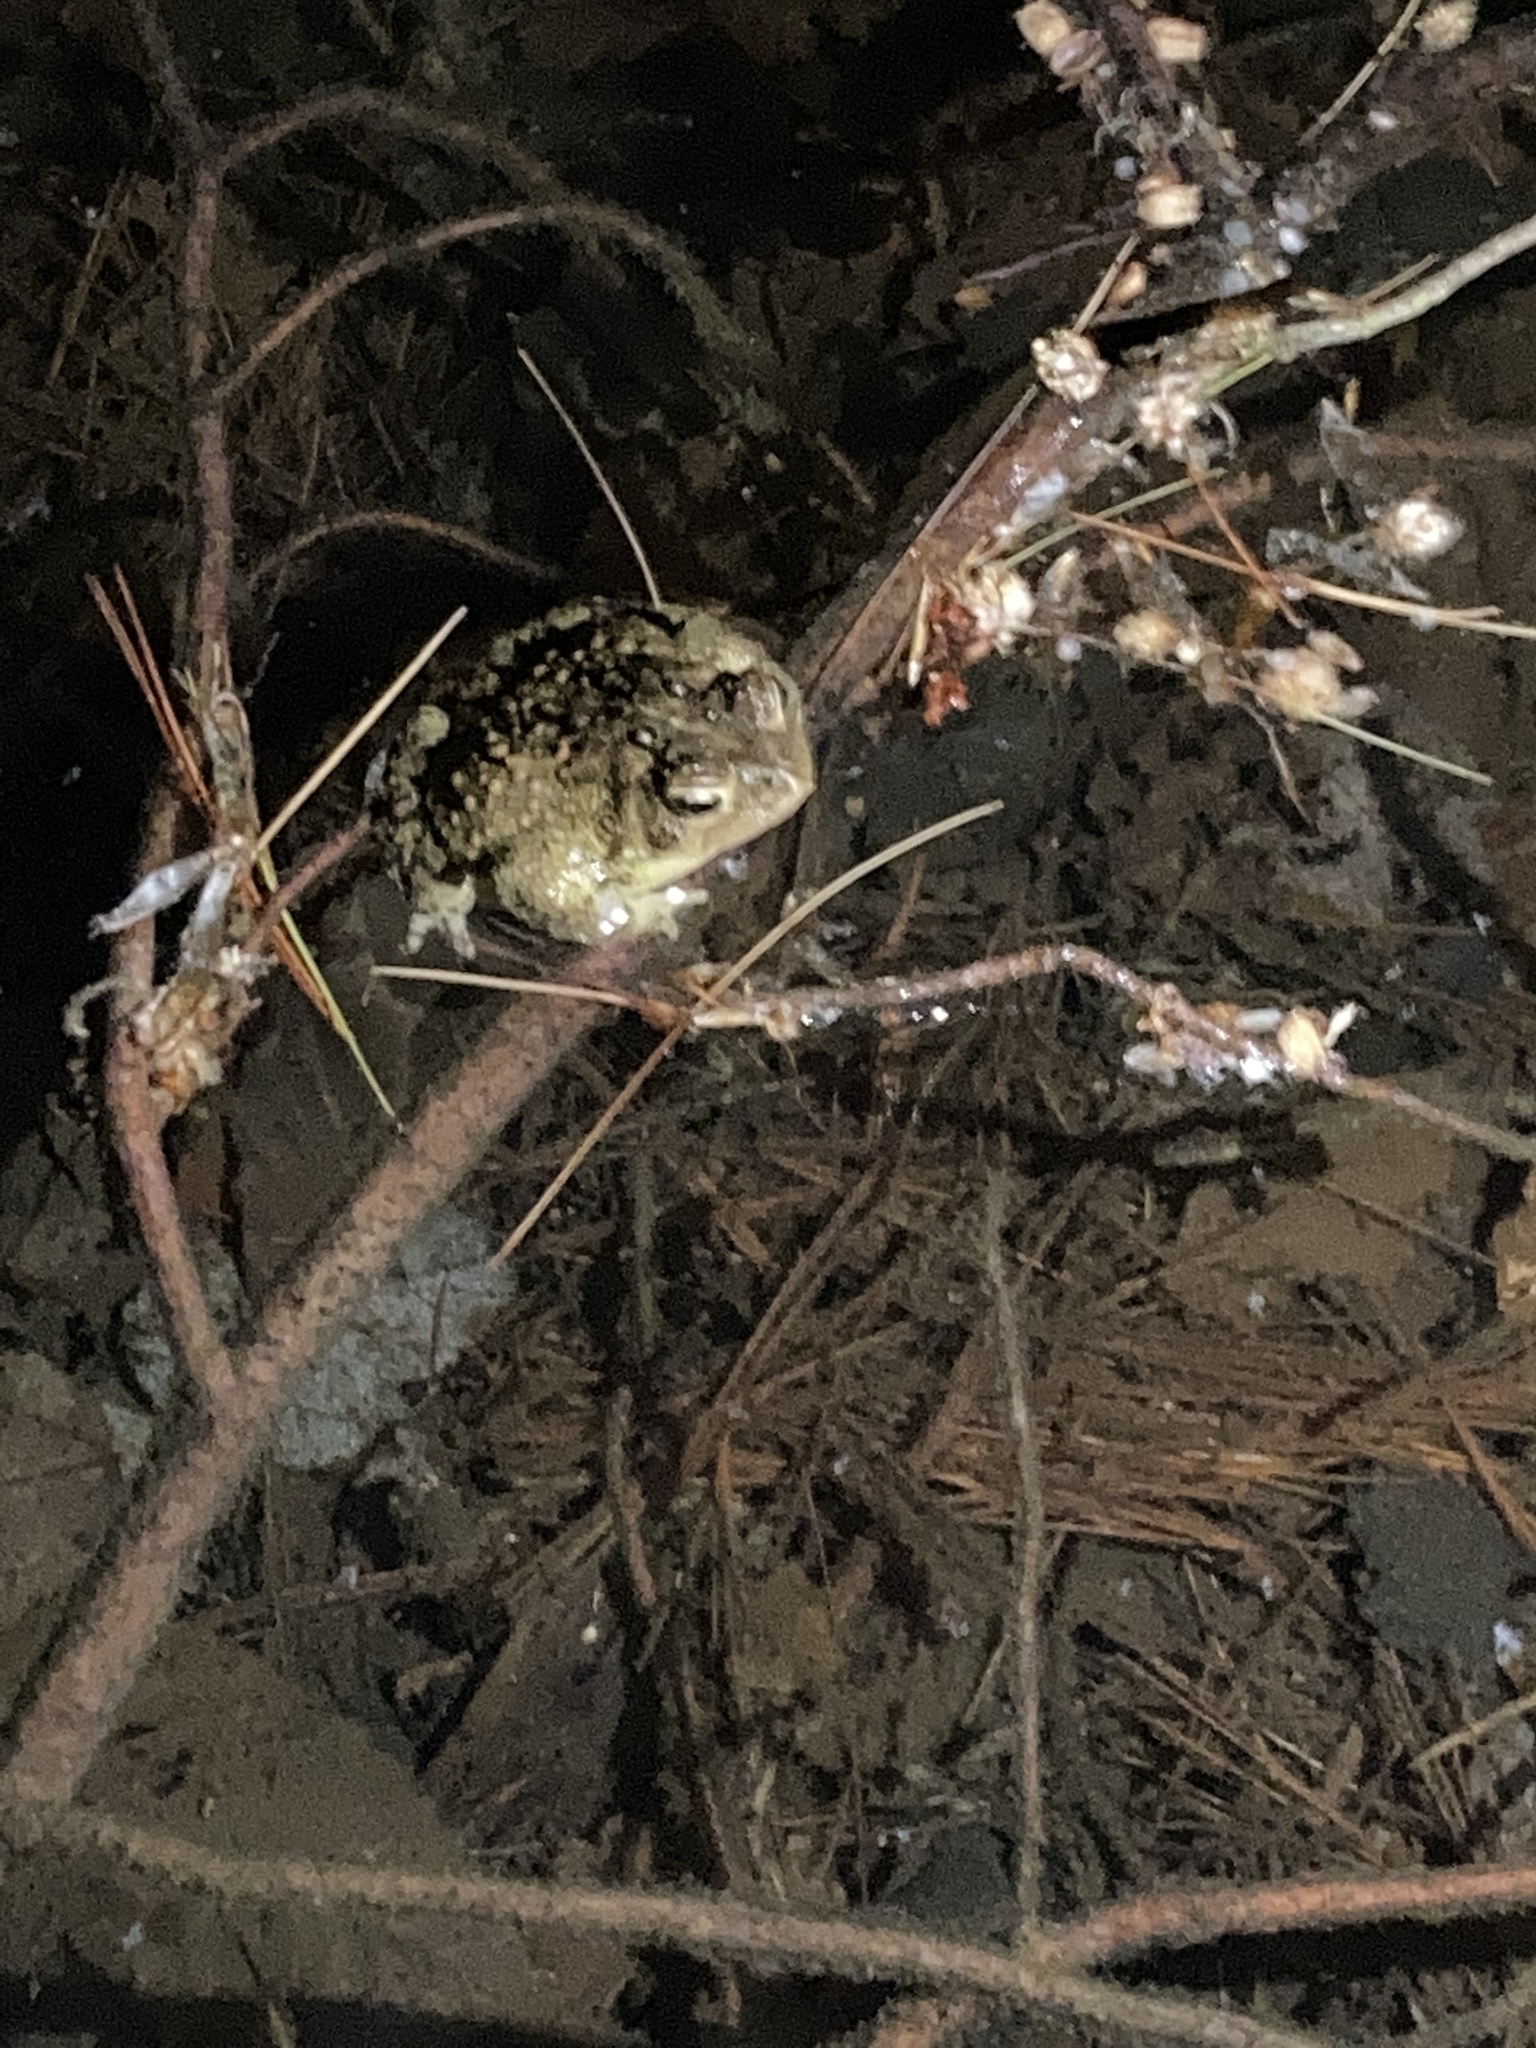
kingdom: Animalia
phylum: Chordata
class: Amphibia
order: Anura
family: Bufonidae
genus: Anaxyrus
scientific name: Anaxyrus americanus
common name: American toad
